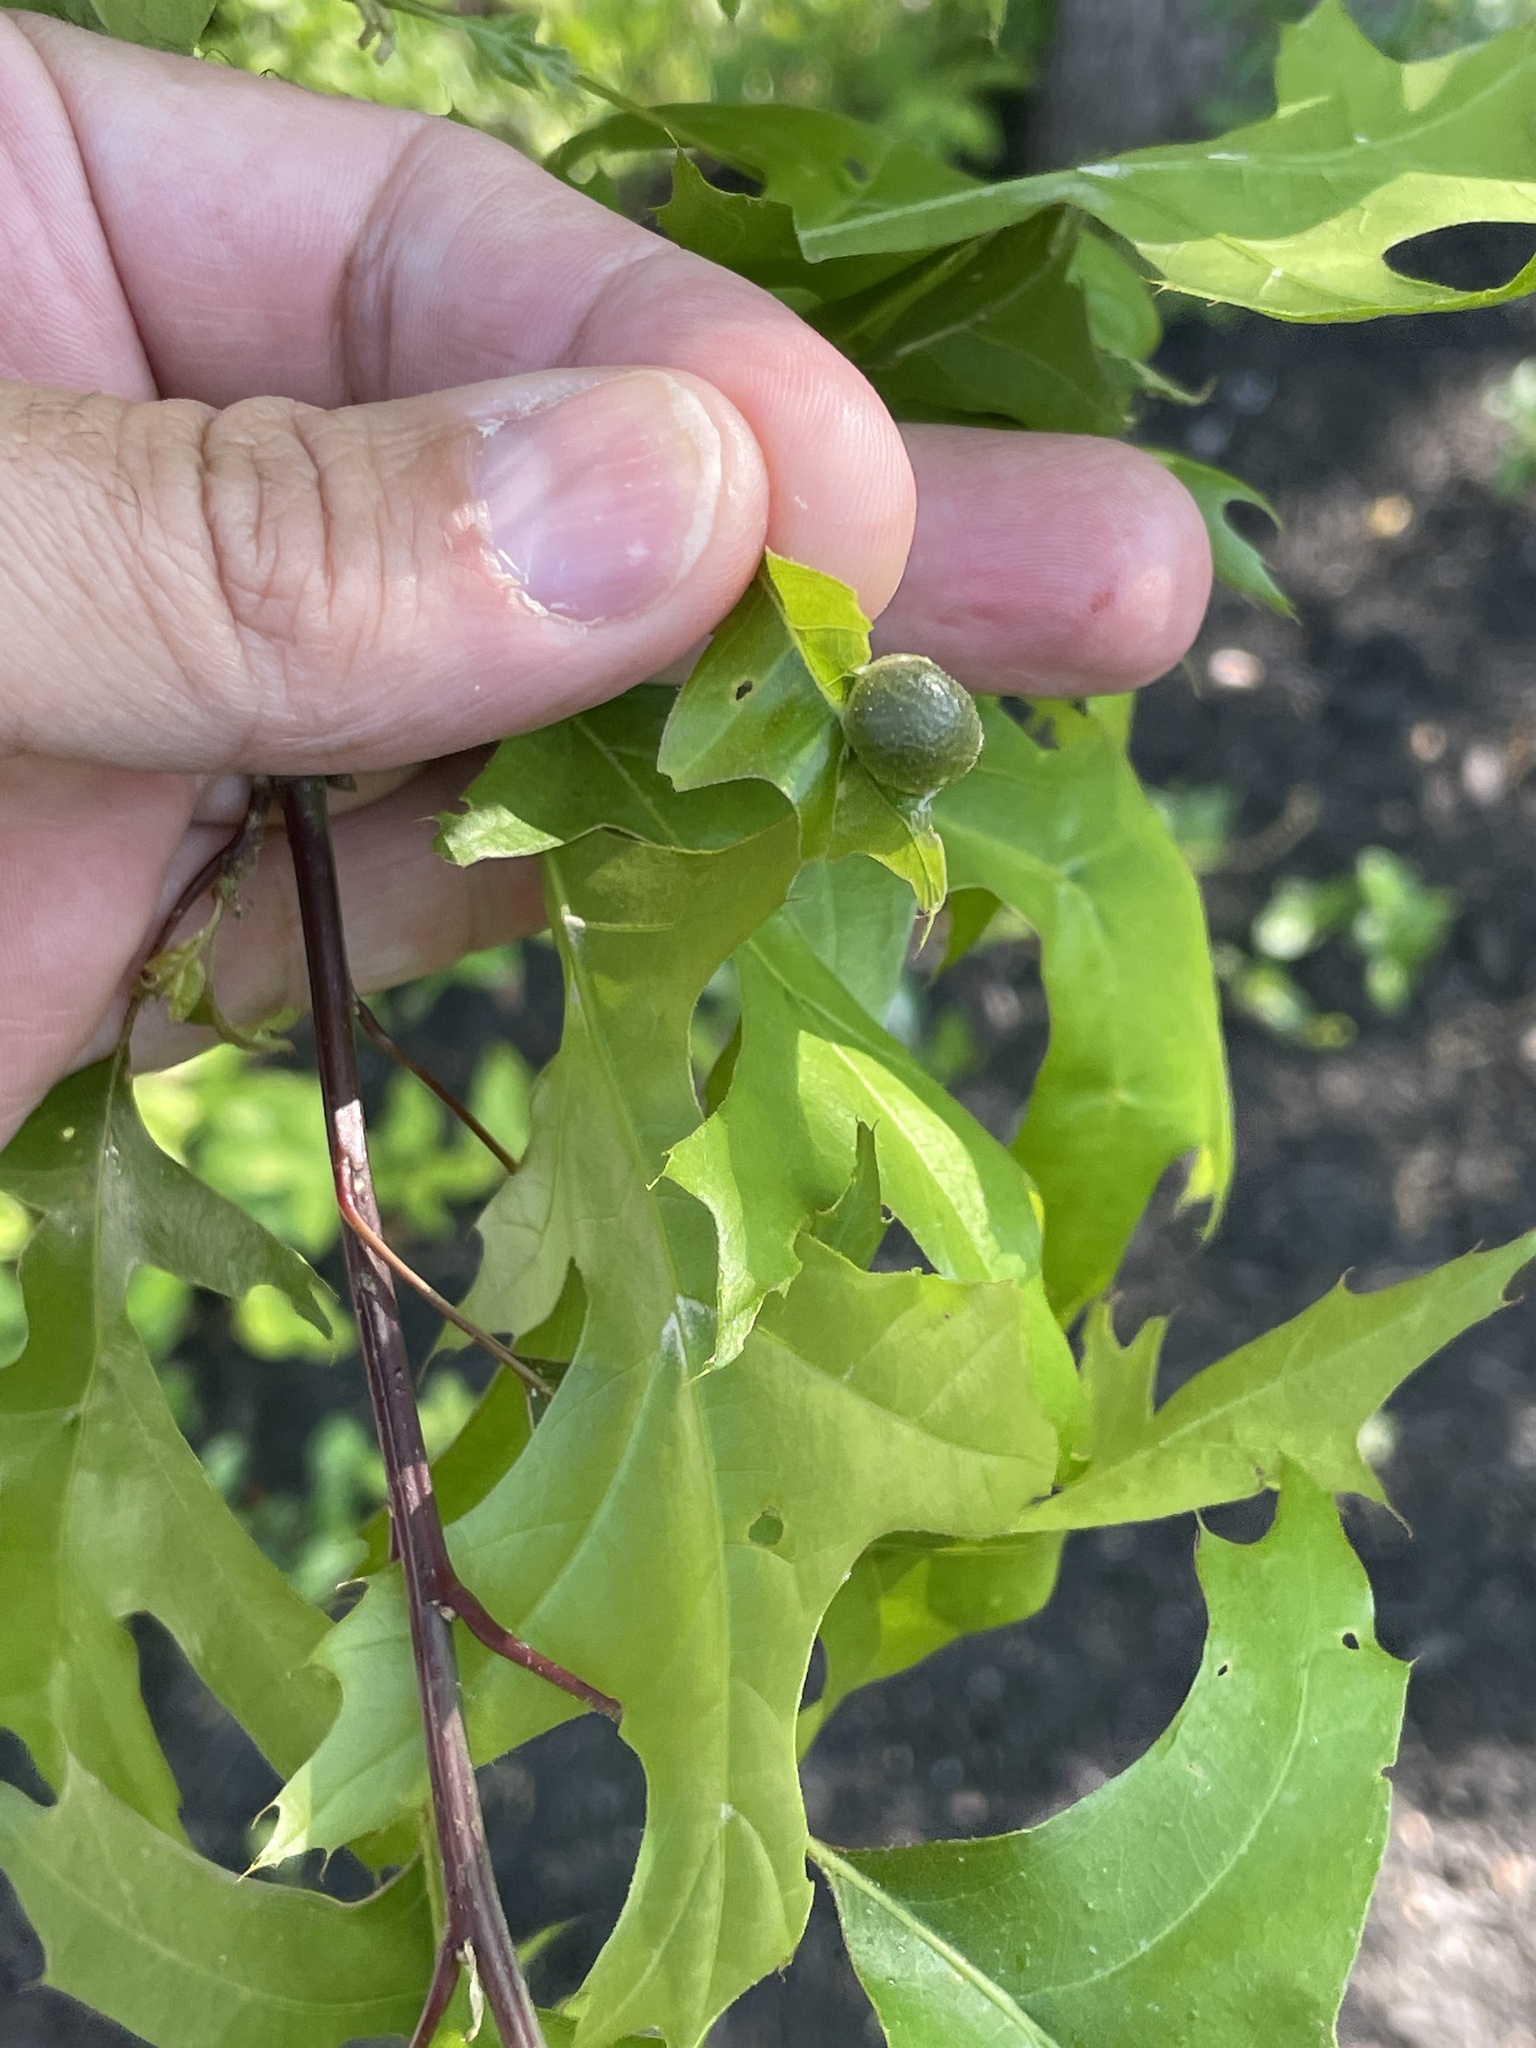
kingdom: Animalia
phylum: Arthropoda
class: Insecta
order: Hymenoptera
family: Cynipidae
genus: Dryocosmus
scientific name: Dryocosmus quercuspalustris
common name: Succulent oak gall wasp
